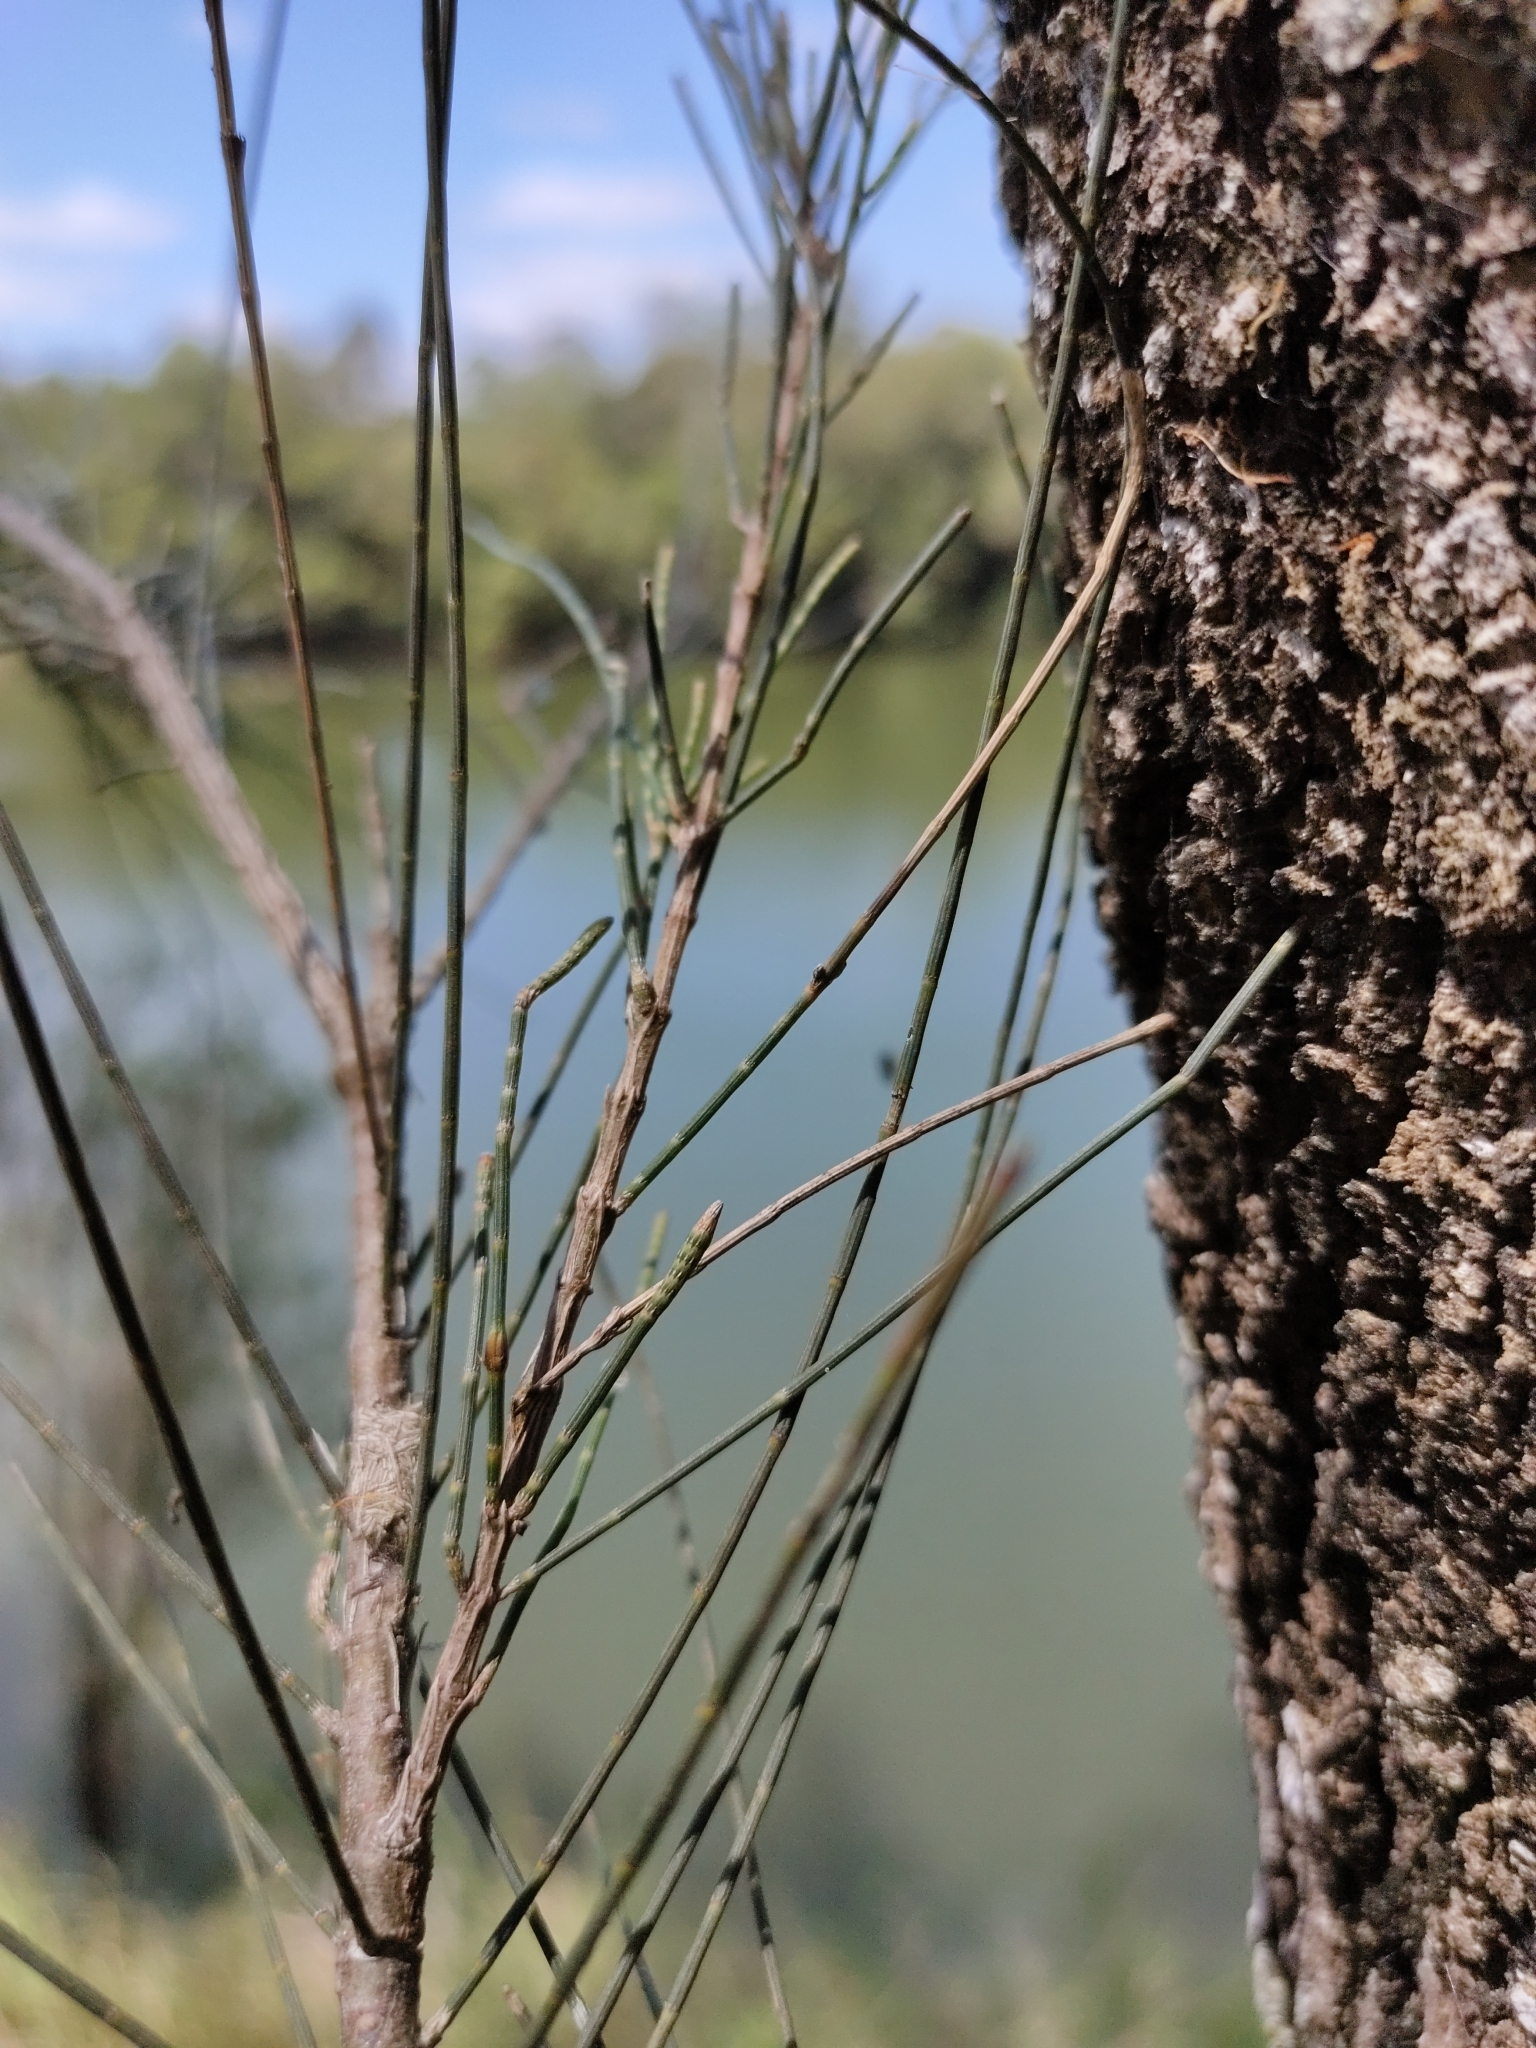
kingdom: Plantae
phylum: Tracheophyta
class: Magnoliopsida
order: Fagales
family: Casuarinaceae
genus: Casuarina
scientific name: Casuarina cunninghamiana
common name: River sheoak
